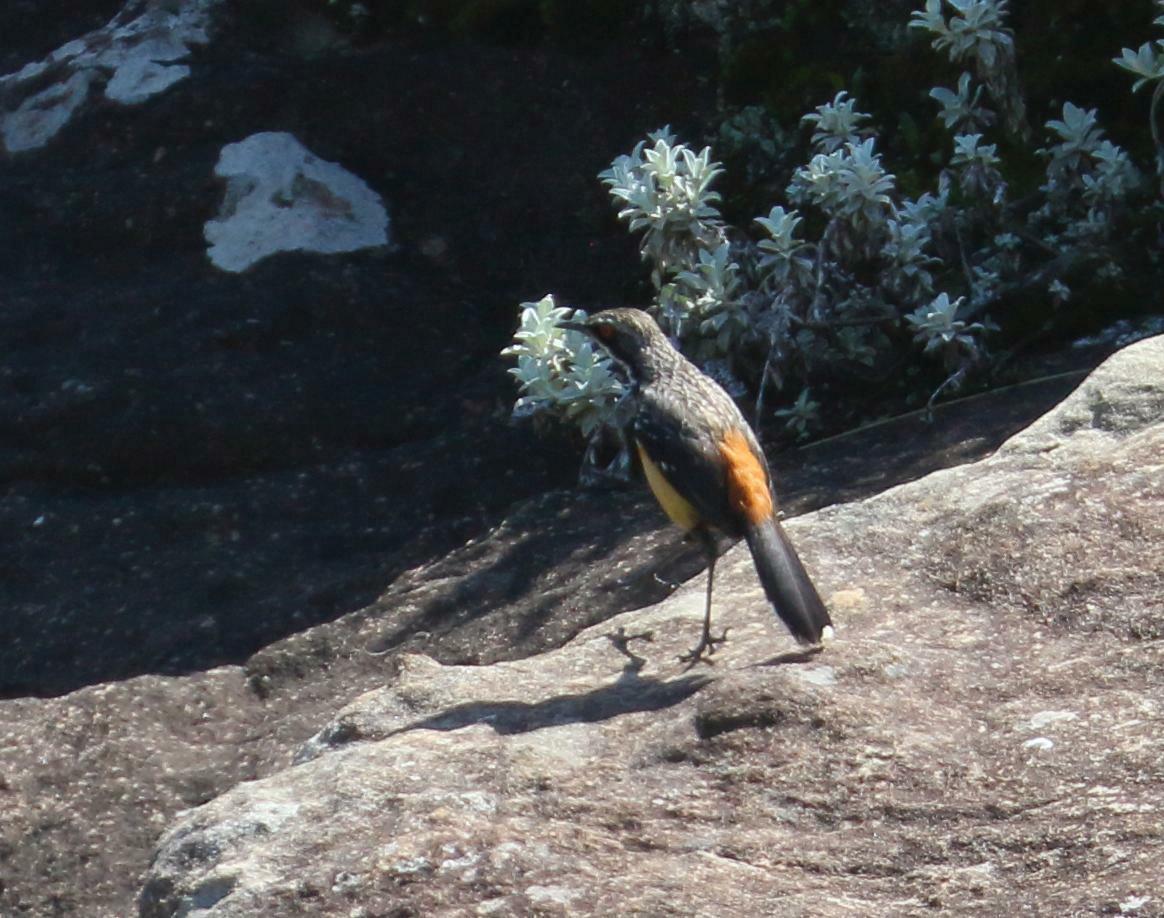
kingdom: Animalia
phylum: Chordata
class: Aves
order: Passeriformes
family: Chaetopidae
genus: Chaetops
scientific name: Chaetops aurantius
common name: Drakensberg rockjumper
